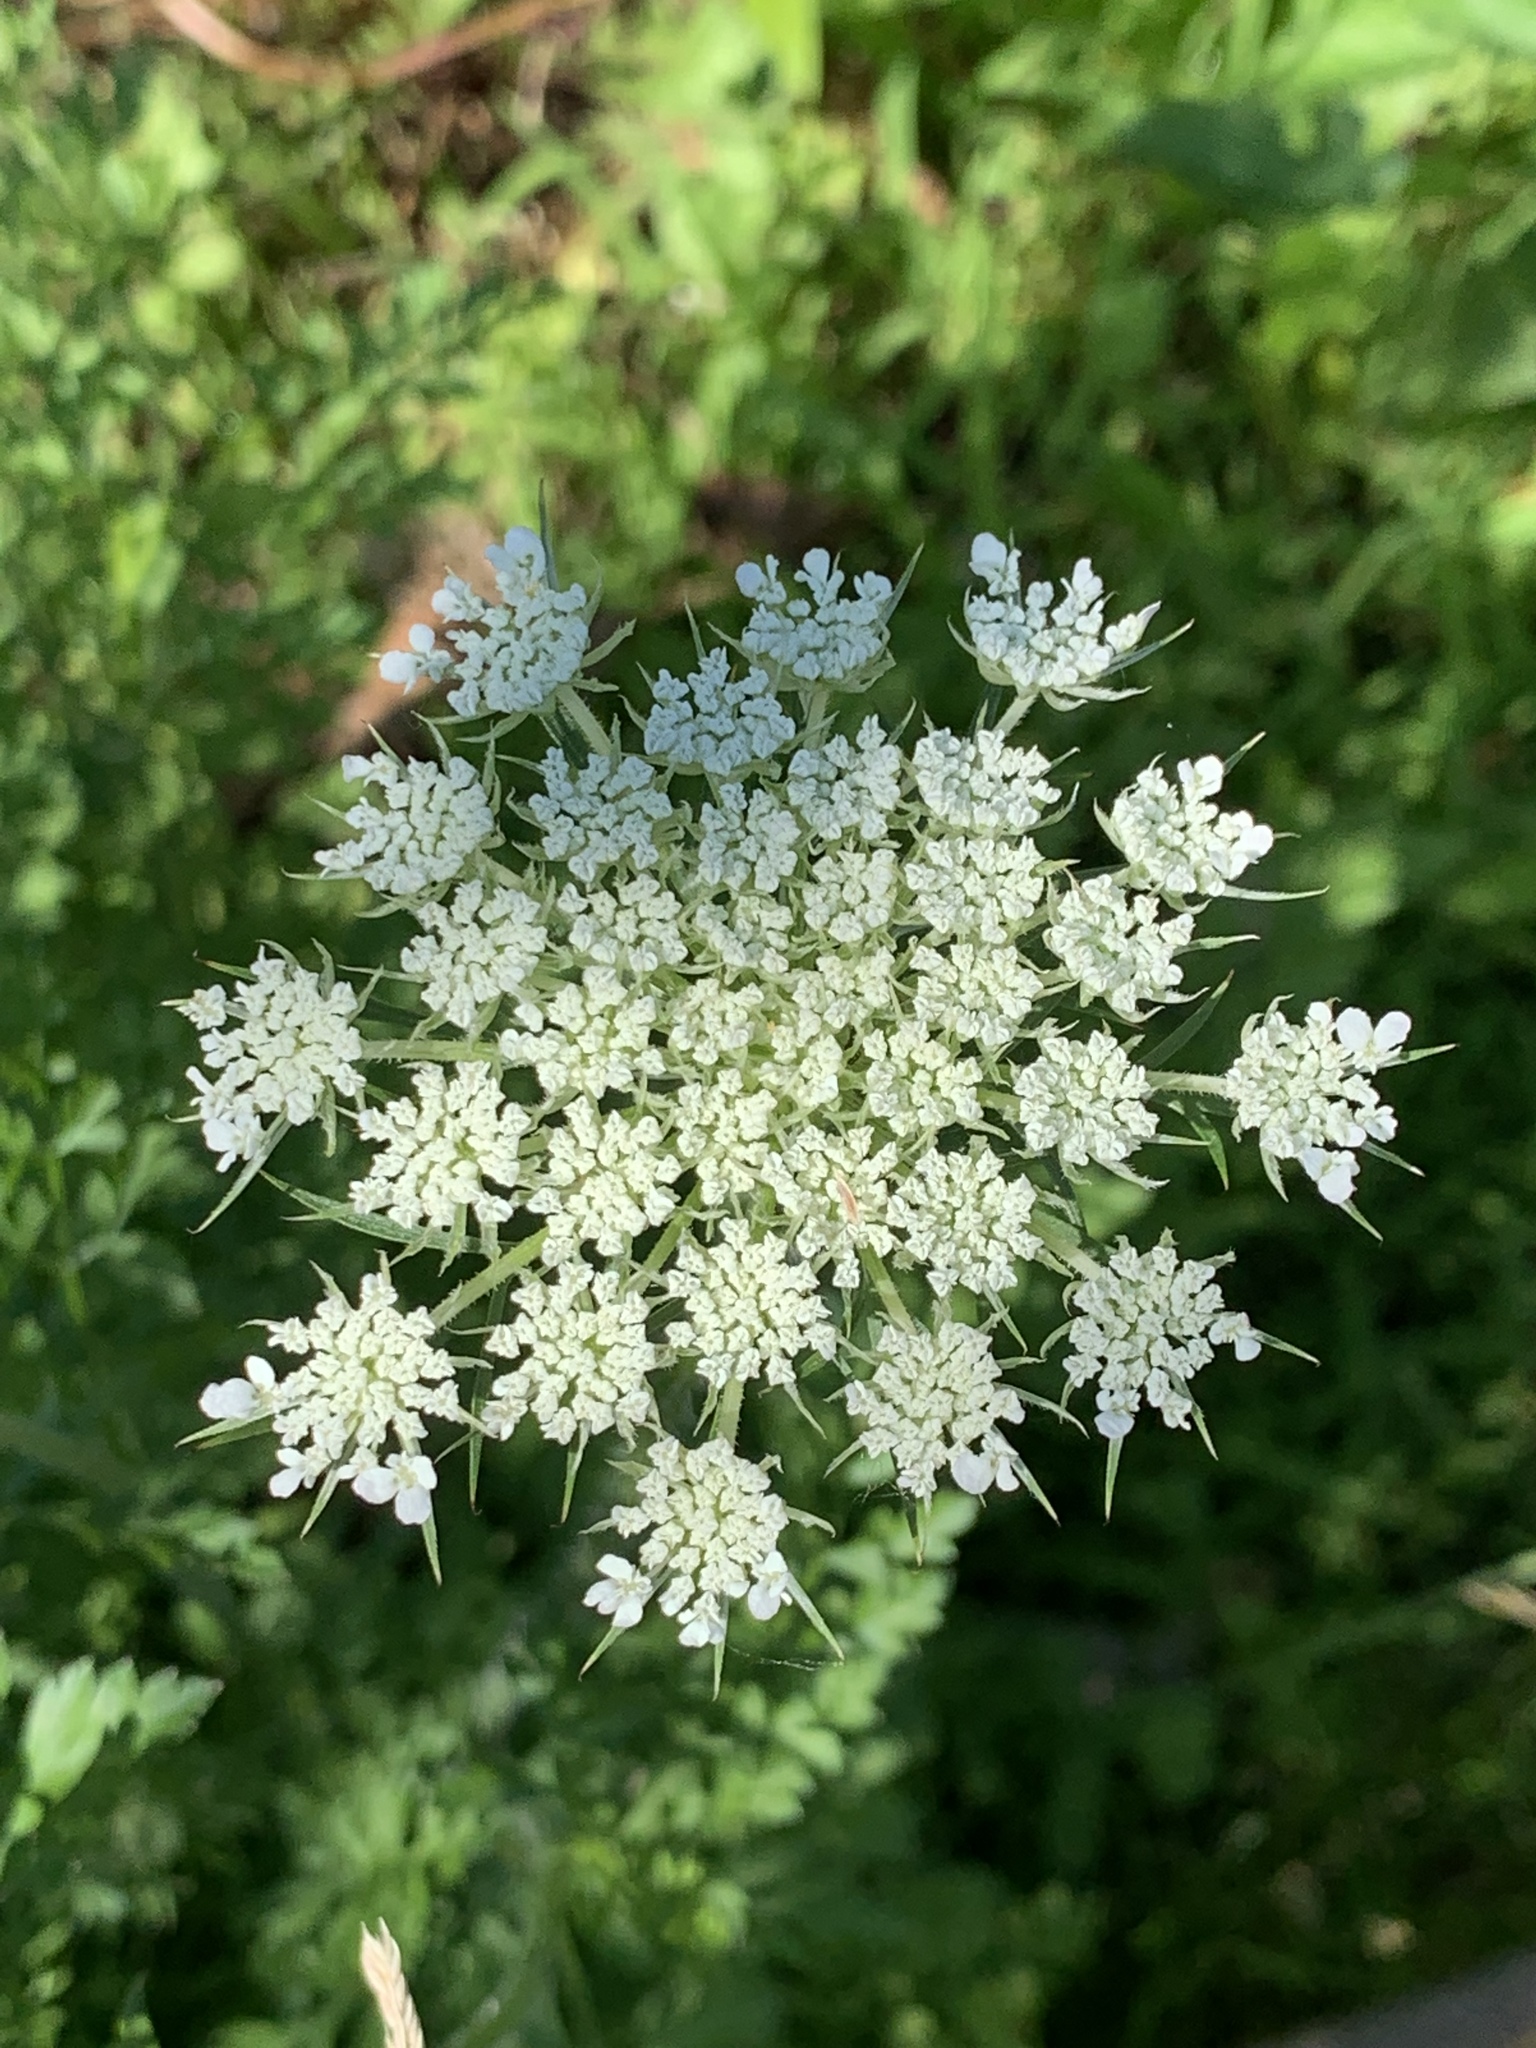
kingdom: Plantae
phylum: Tracheophyta
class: Magnoliopsida
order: Apiales
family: Apiaceae
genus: Daucus
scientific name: Daucus carota
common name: Wild carrot
